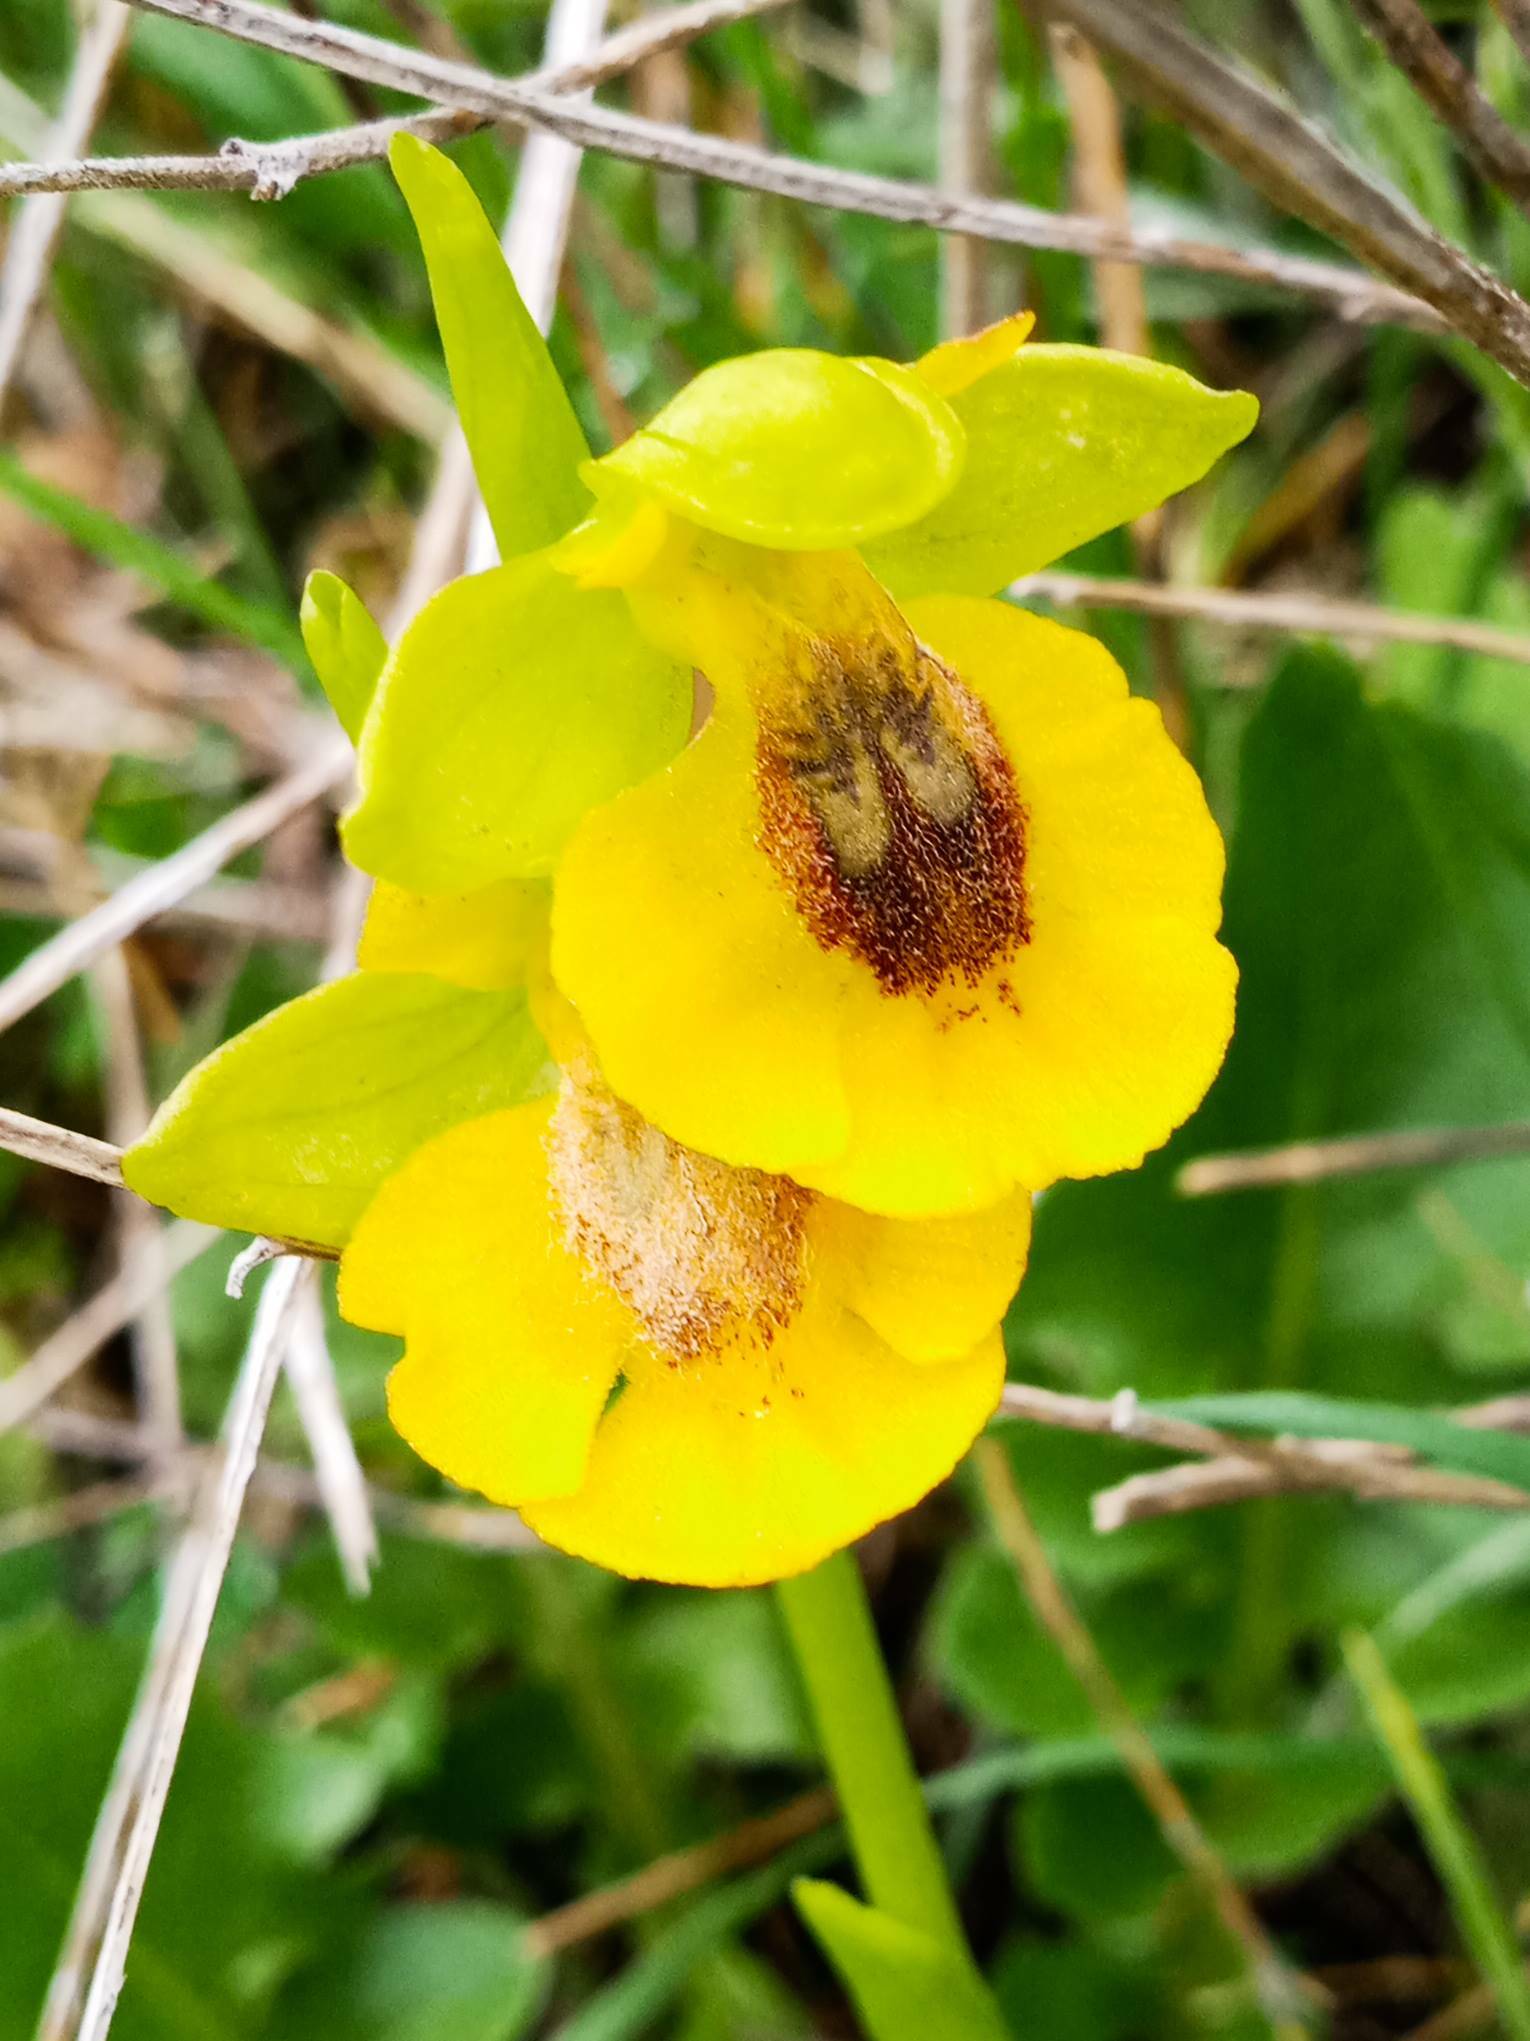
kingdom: Plantae
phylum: Tracheophyta
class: Liliopsida
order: Asparagales
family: Orchidaceae
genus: Ophrys
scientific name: Ophrys lutea
